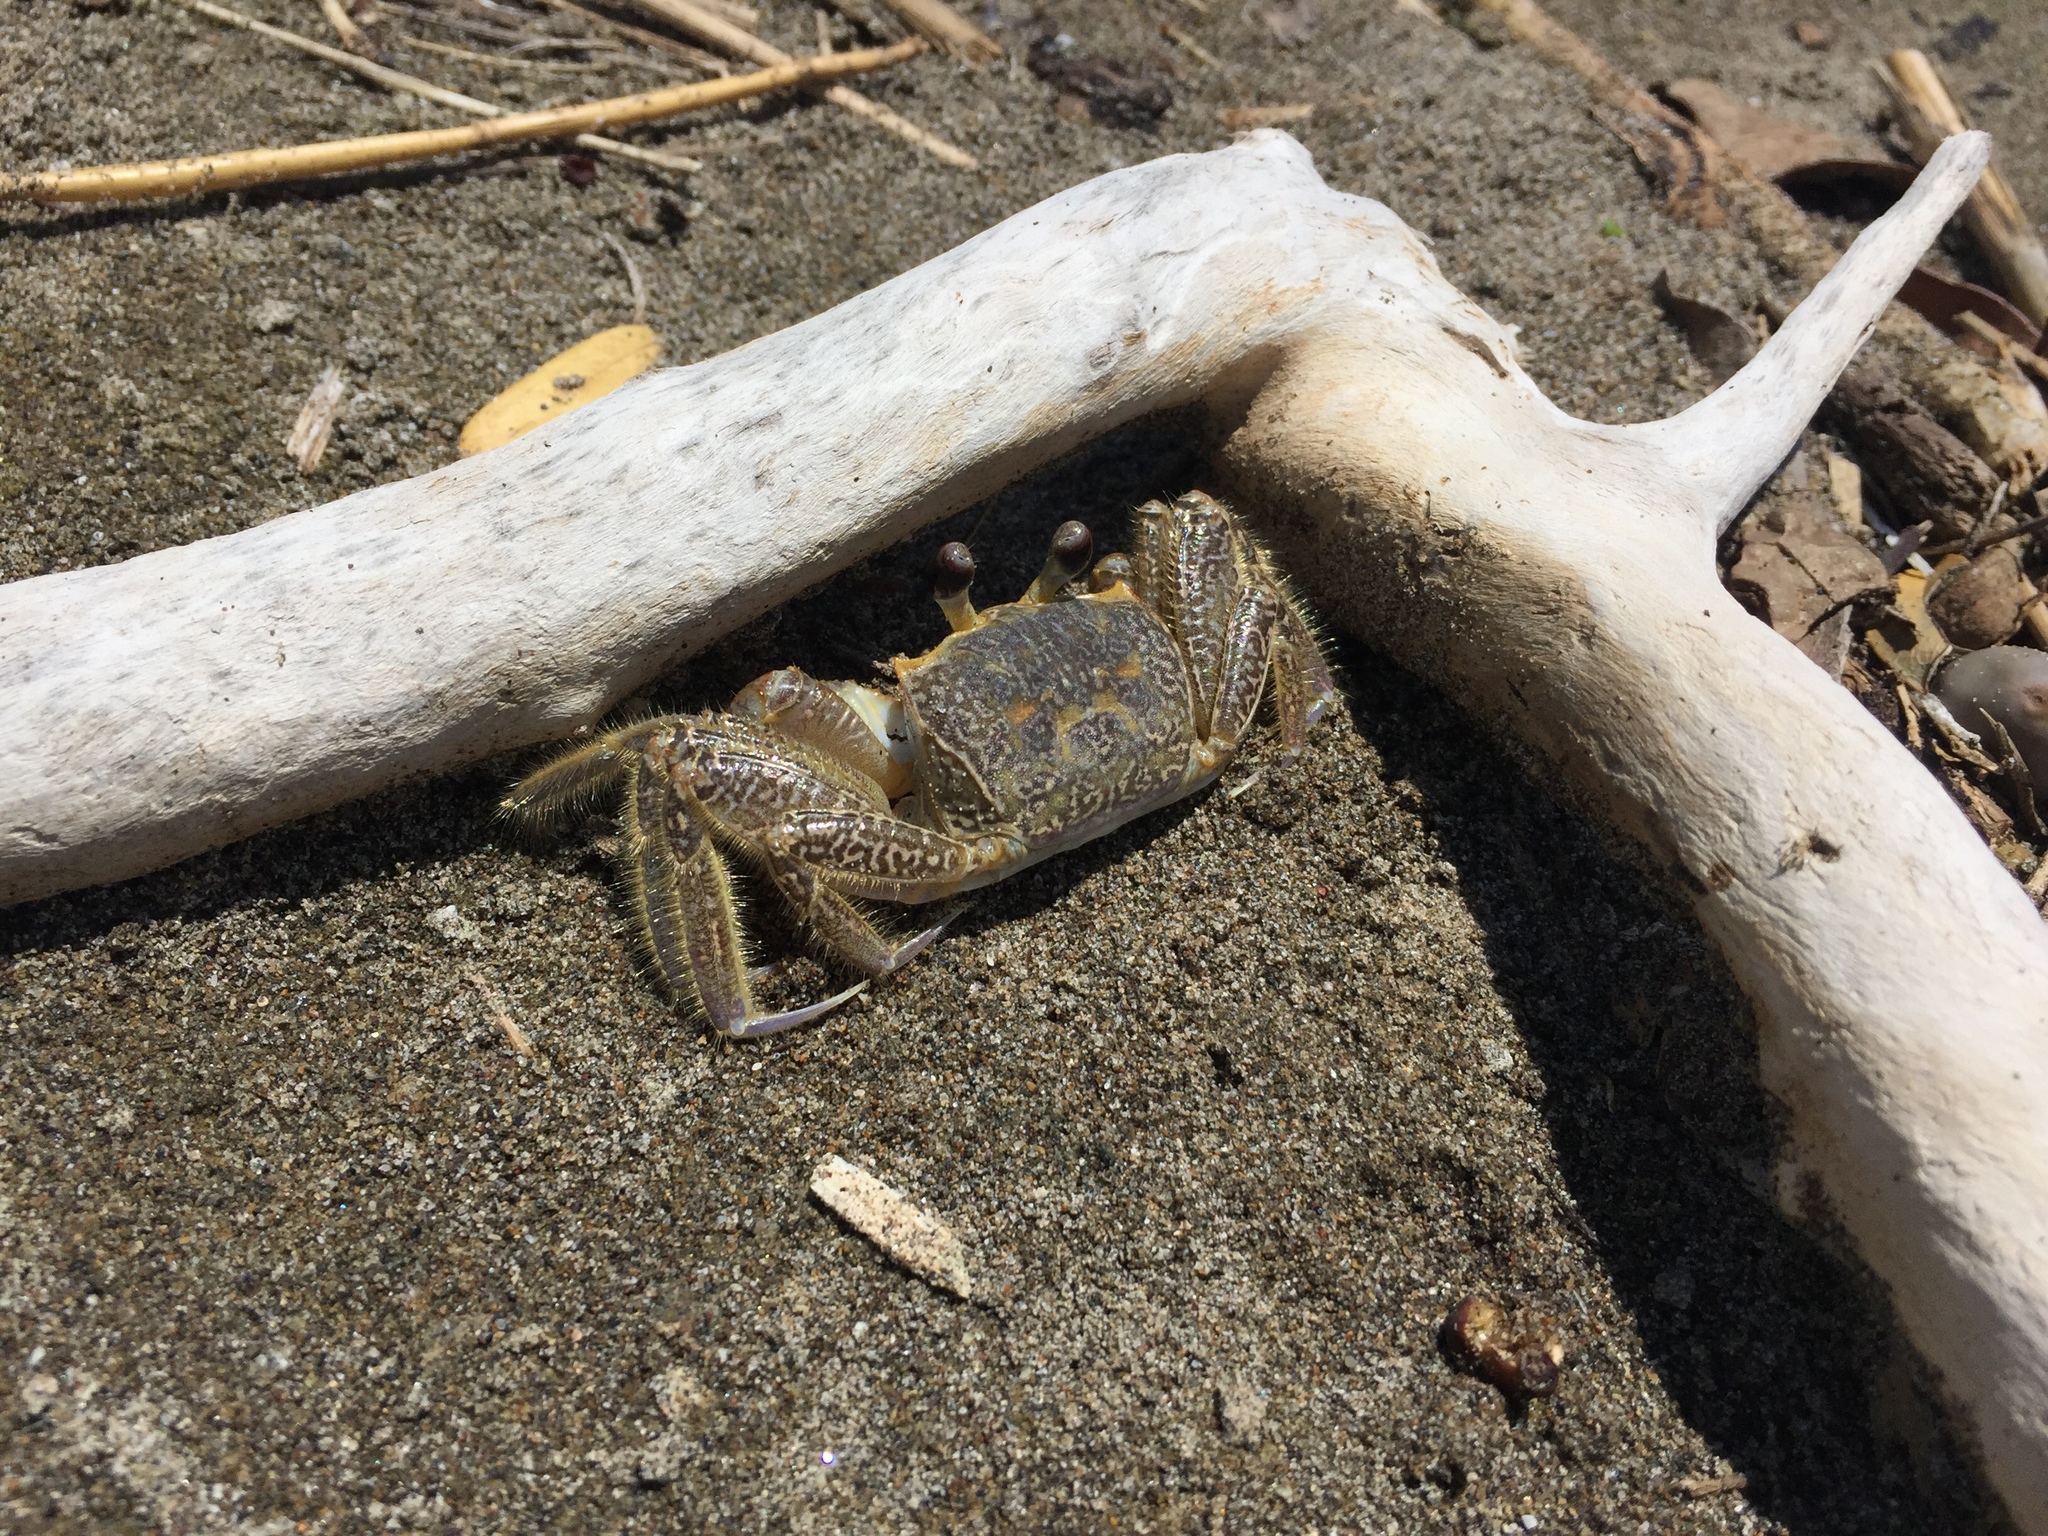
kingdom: Animalia
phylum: Arthropoda
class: Malacostraca
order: Decapoda
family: Ocypodidae
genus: Ocypode
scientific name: Ocypode quadrata
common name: Ghost crab
